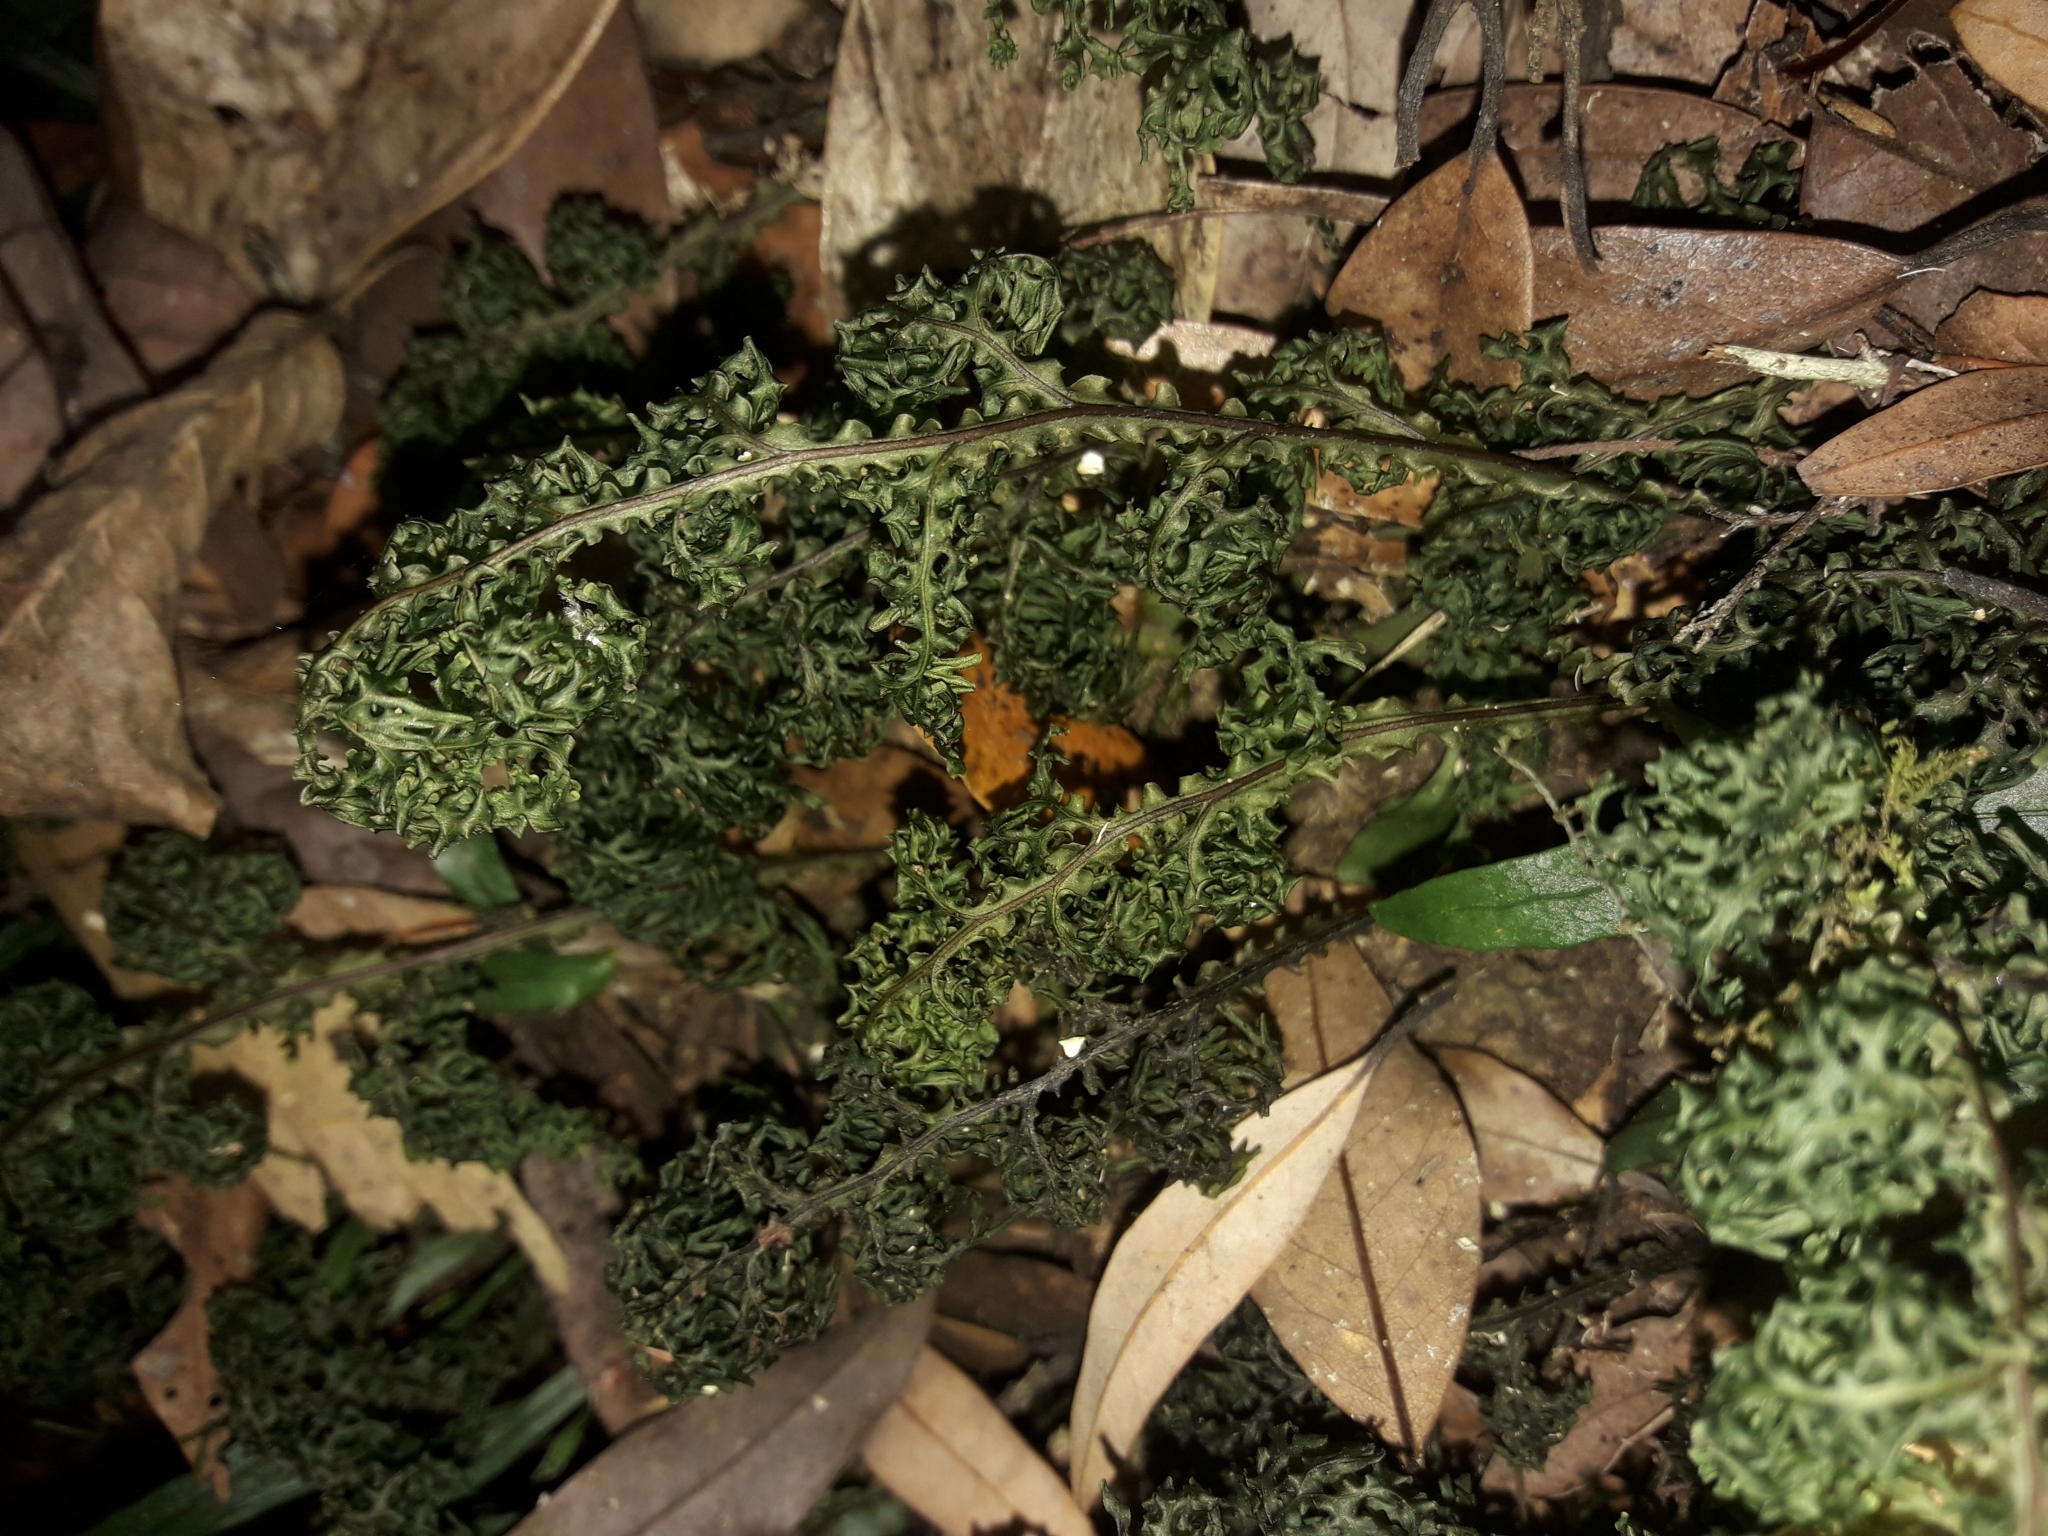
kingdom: Plantae
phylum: Tracheophyta
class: Polypodiopsida
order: Hymenophyllales
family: Hymenophyllaceae
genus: Hymenophyllum
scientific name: Hymenophyllum flexuosum
